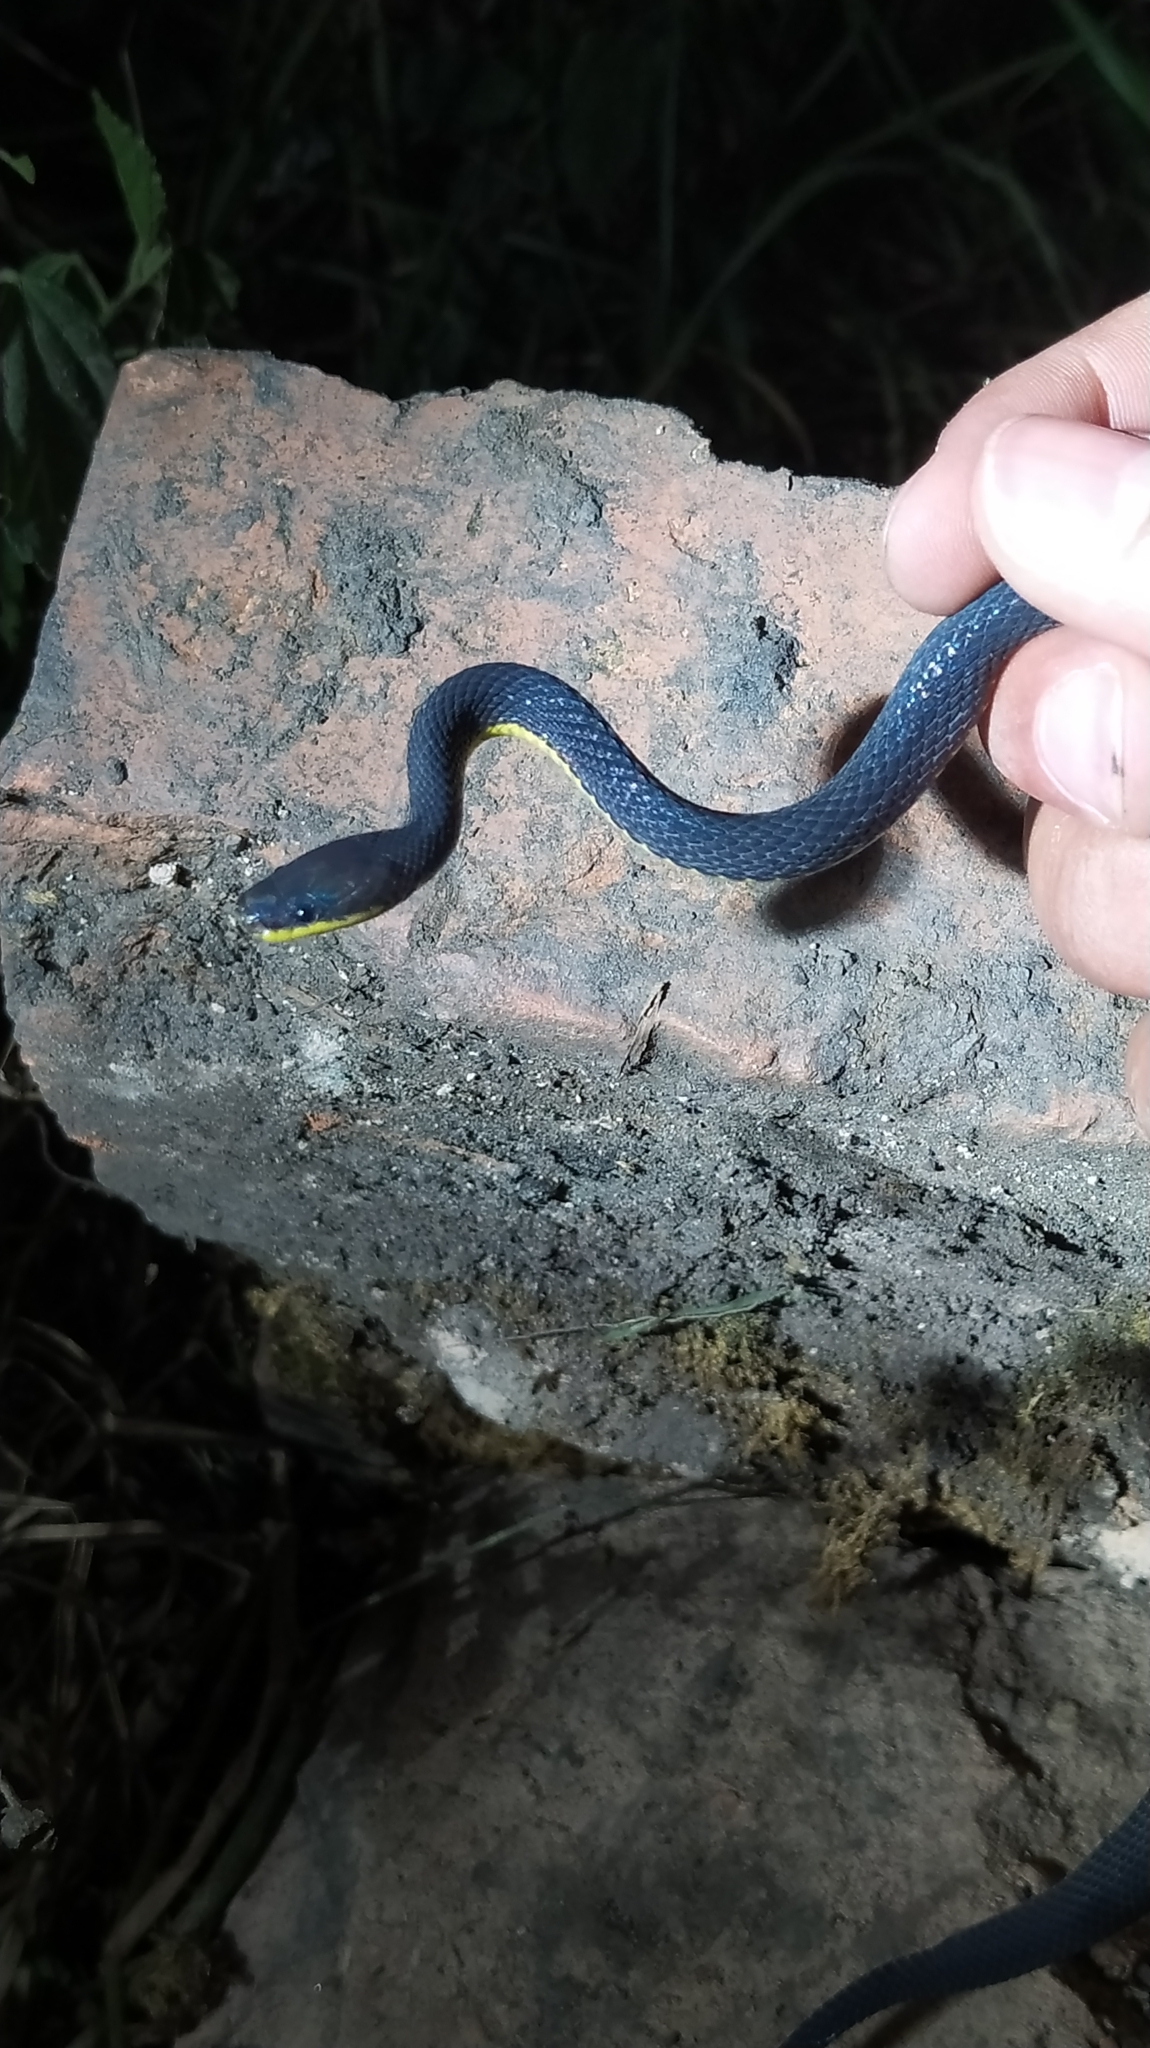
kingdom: Animalia
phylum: Chordata
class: Squamata
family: Colubridae
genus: Synophis
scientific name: Synophis lasallei
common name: Lasalle's fishing snake
